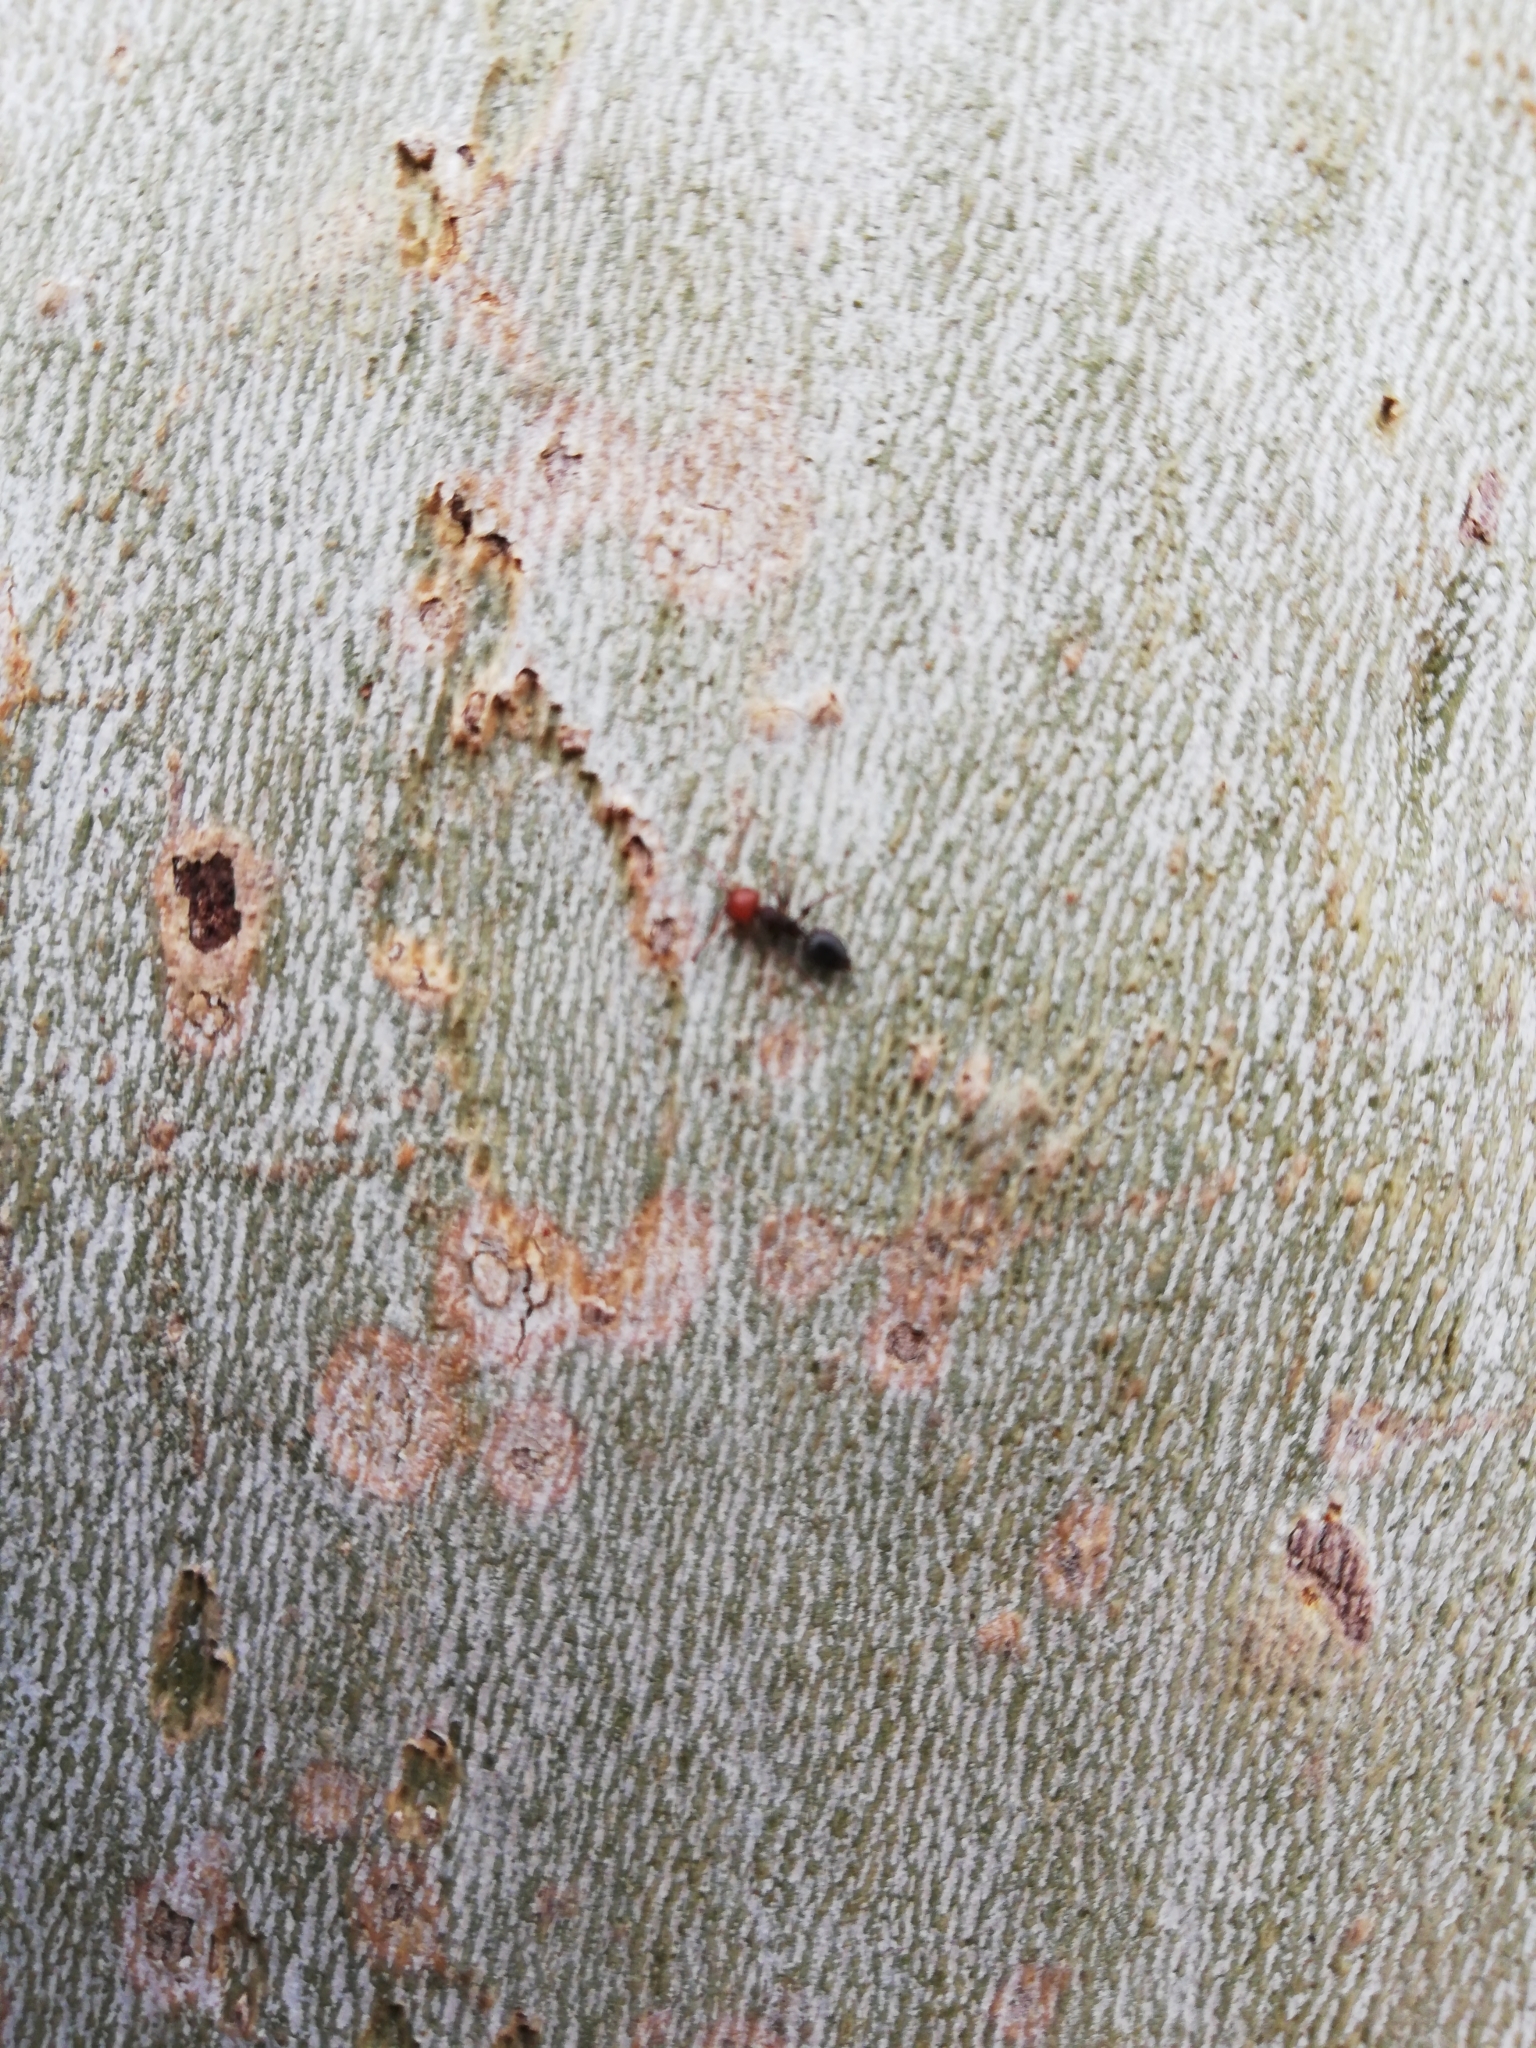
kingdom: Animalia
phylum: Arthropoda
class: Insecta
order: Hymenoptera
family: Formicidae
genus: Crematogaster
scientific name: Crematogaster scutellaris
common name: Fourmi du liège
